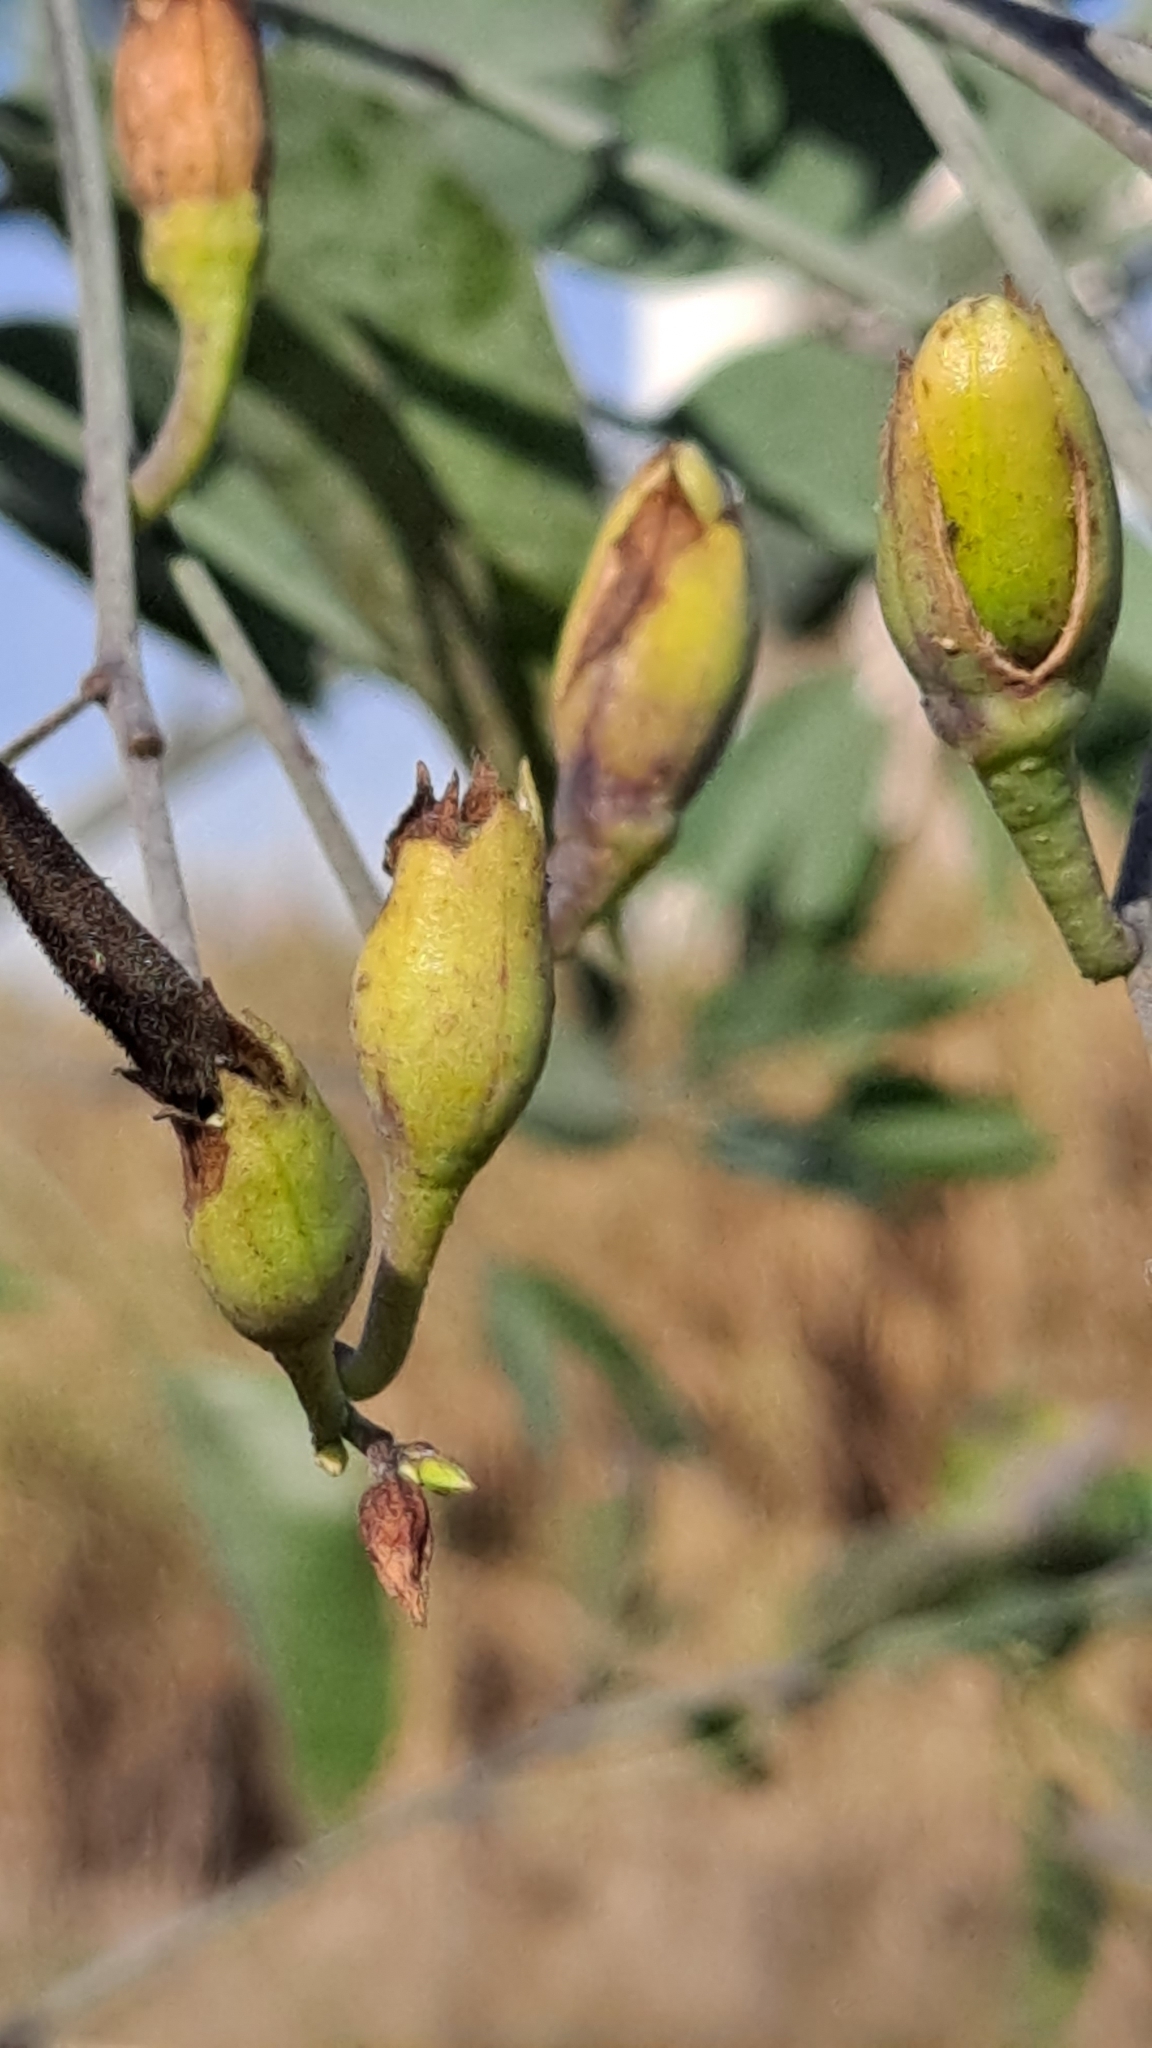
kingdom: Plantae
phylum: Tracheophyta
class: Magnoliopsida
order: Solanales
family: Solanaceae
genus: Nicotiana
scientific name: Nicotiana glauca
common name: Tree tobacco
